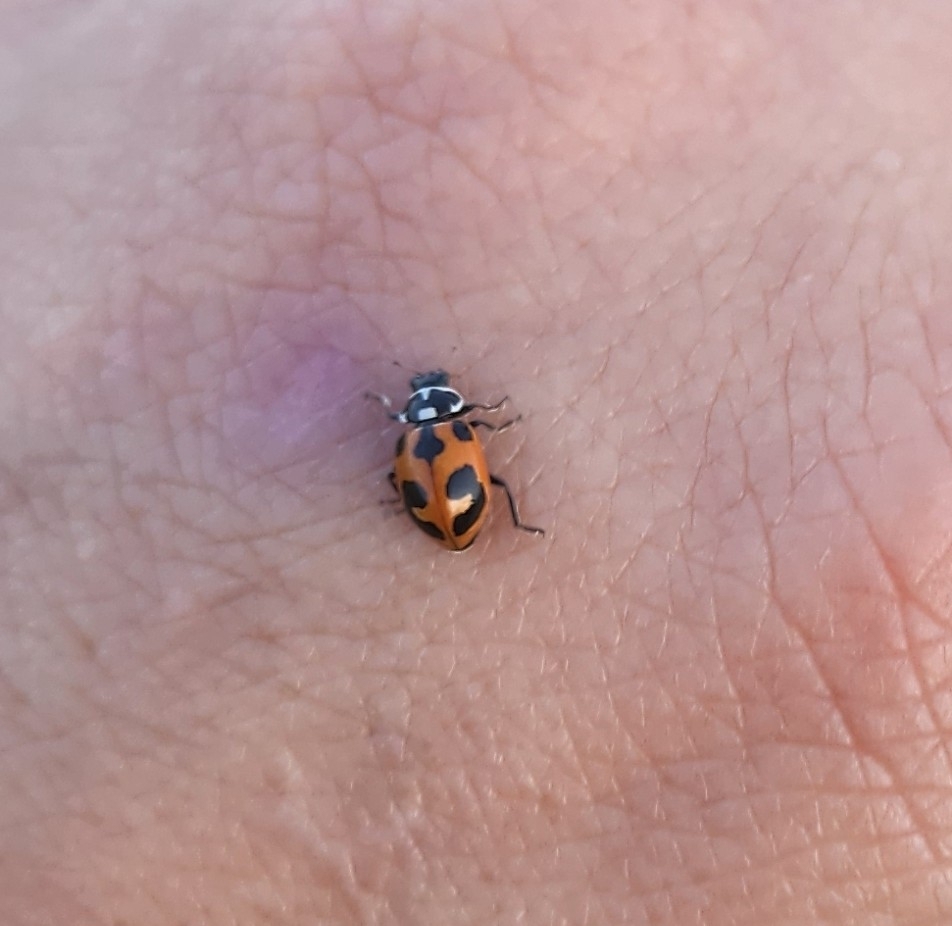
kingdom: Animalia
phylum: Arthropoda
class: Insecta
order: Coleoptera
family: Coccinellidae
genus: Hippodamia
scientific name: Hippodamia parenthesis
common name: Parenthesis lady beetle
